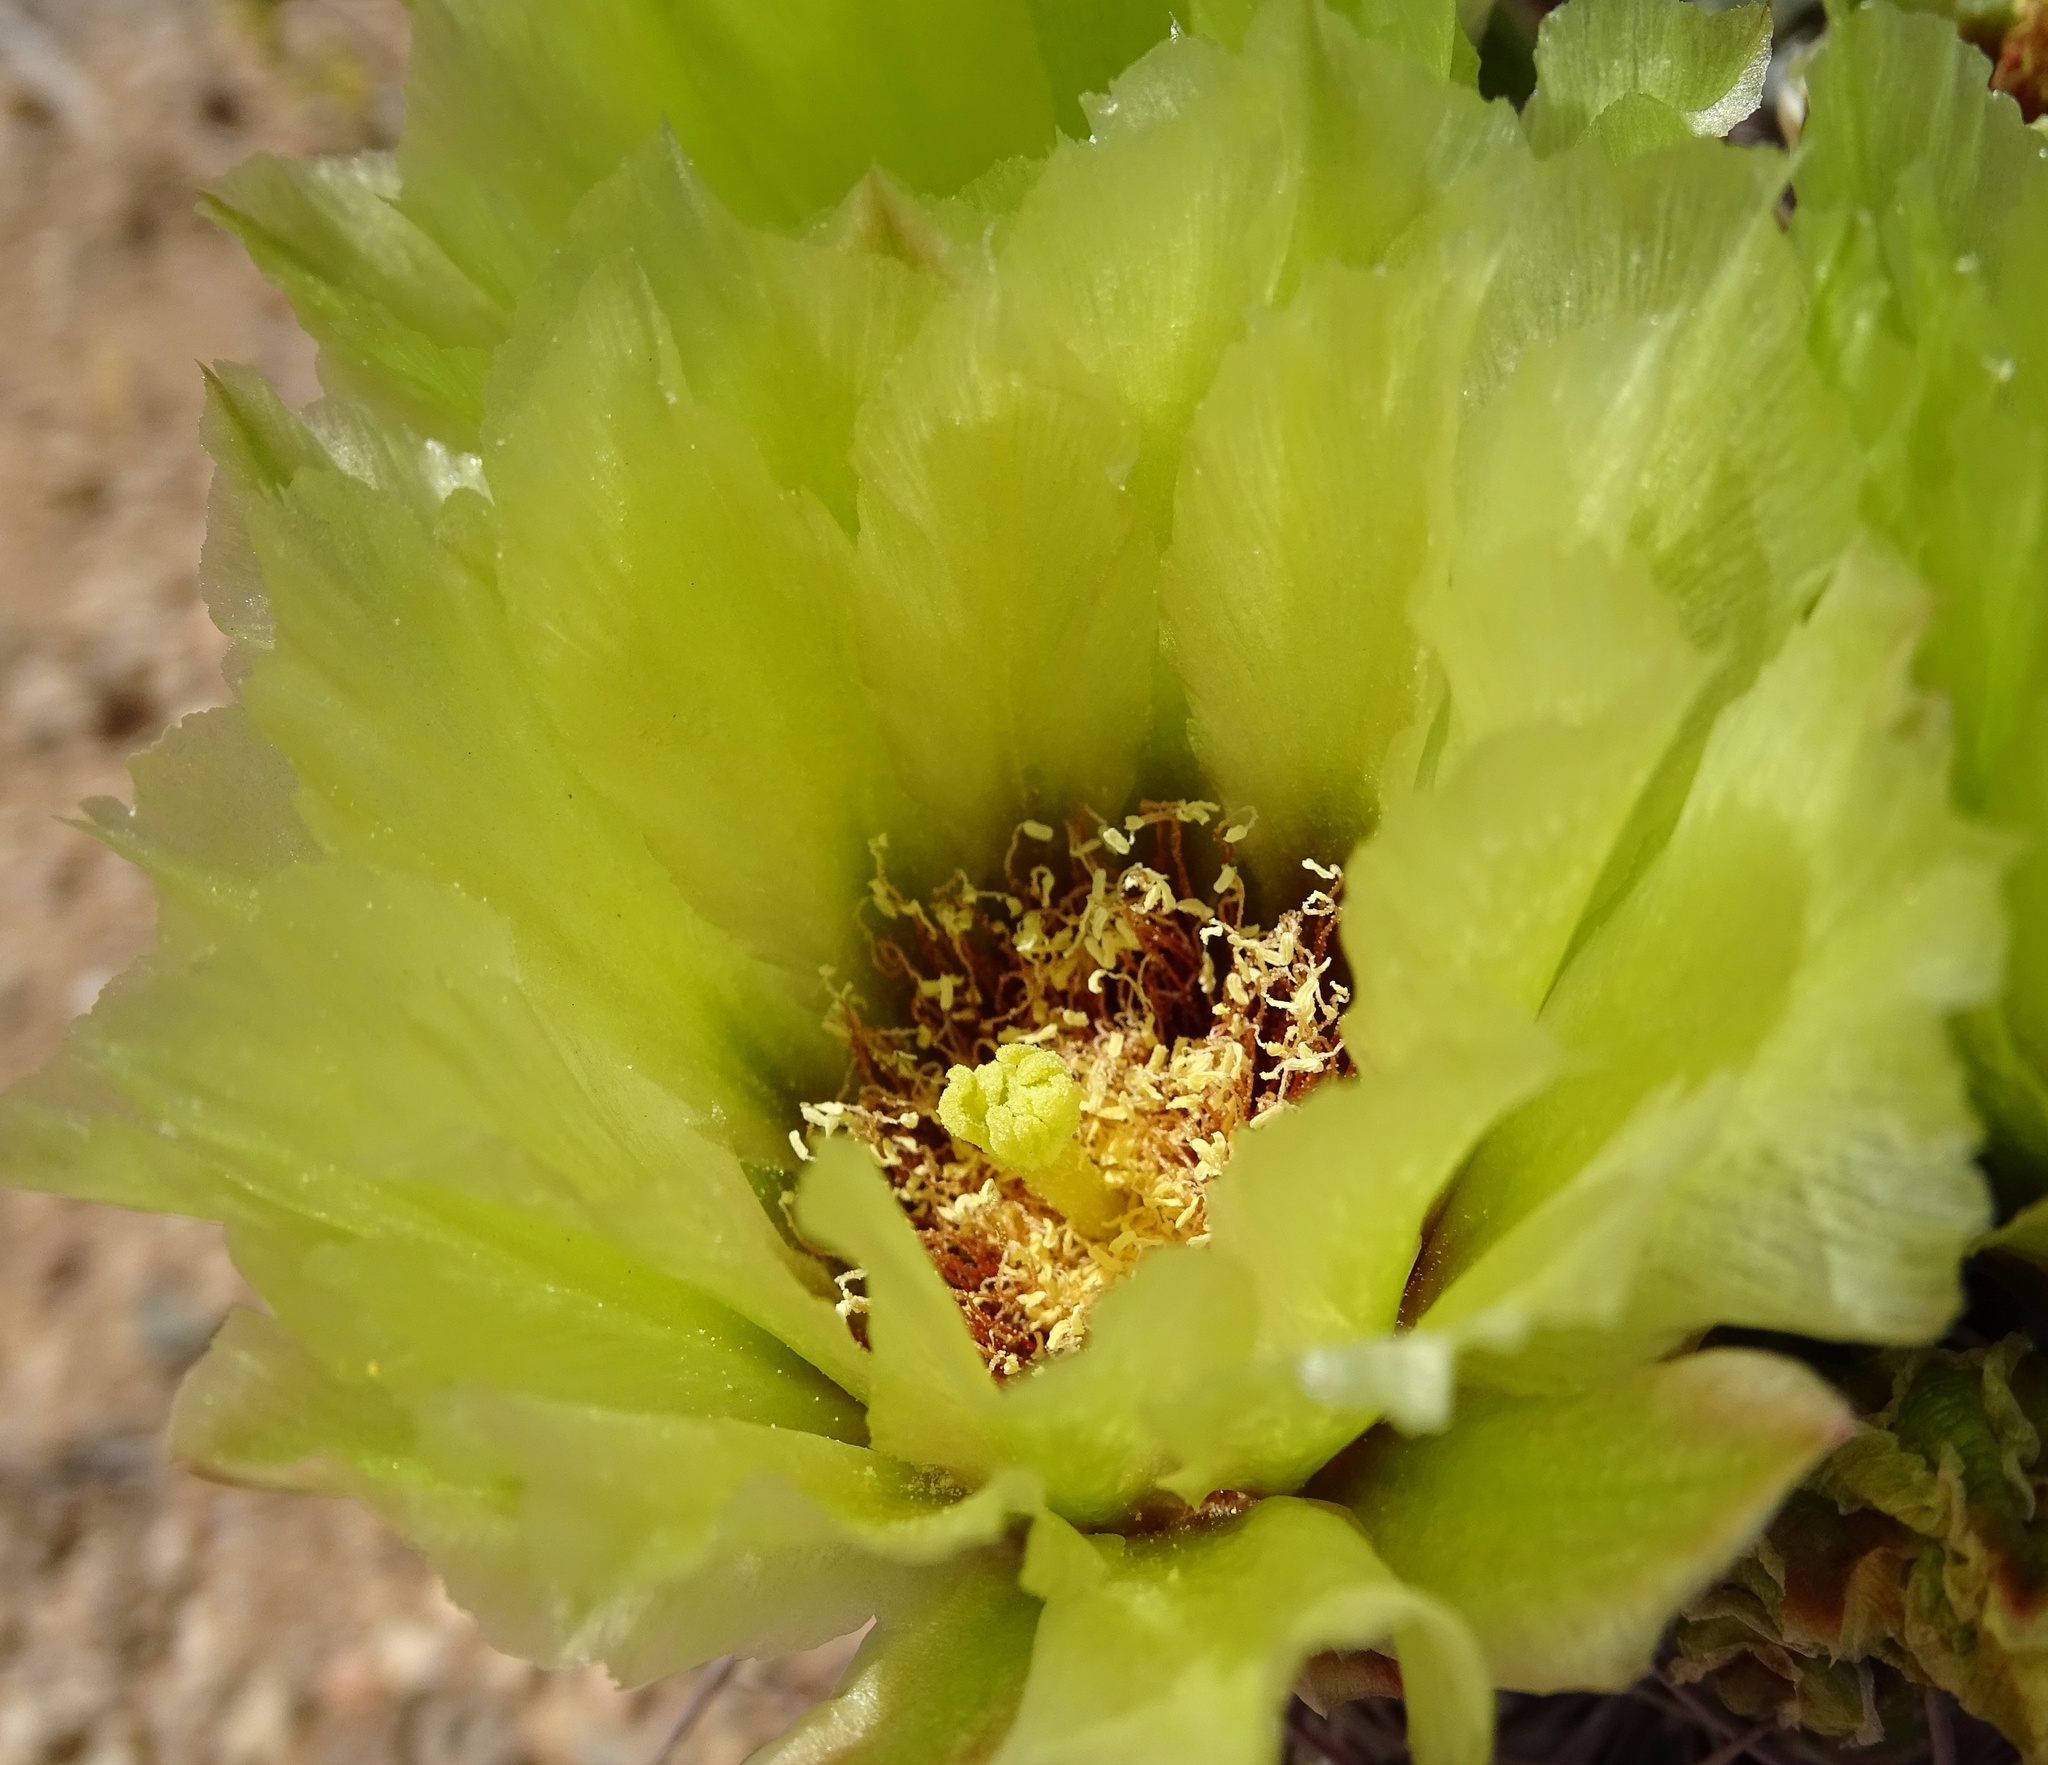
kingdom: Plantae
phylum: Tracheophyta
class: Magnoliopsida
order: Caryophyllales
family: Cactaceae
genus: Sclerocactus
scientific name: Sclerocactus johnsonii
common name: Eight-spine fishhook cactus
